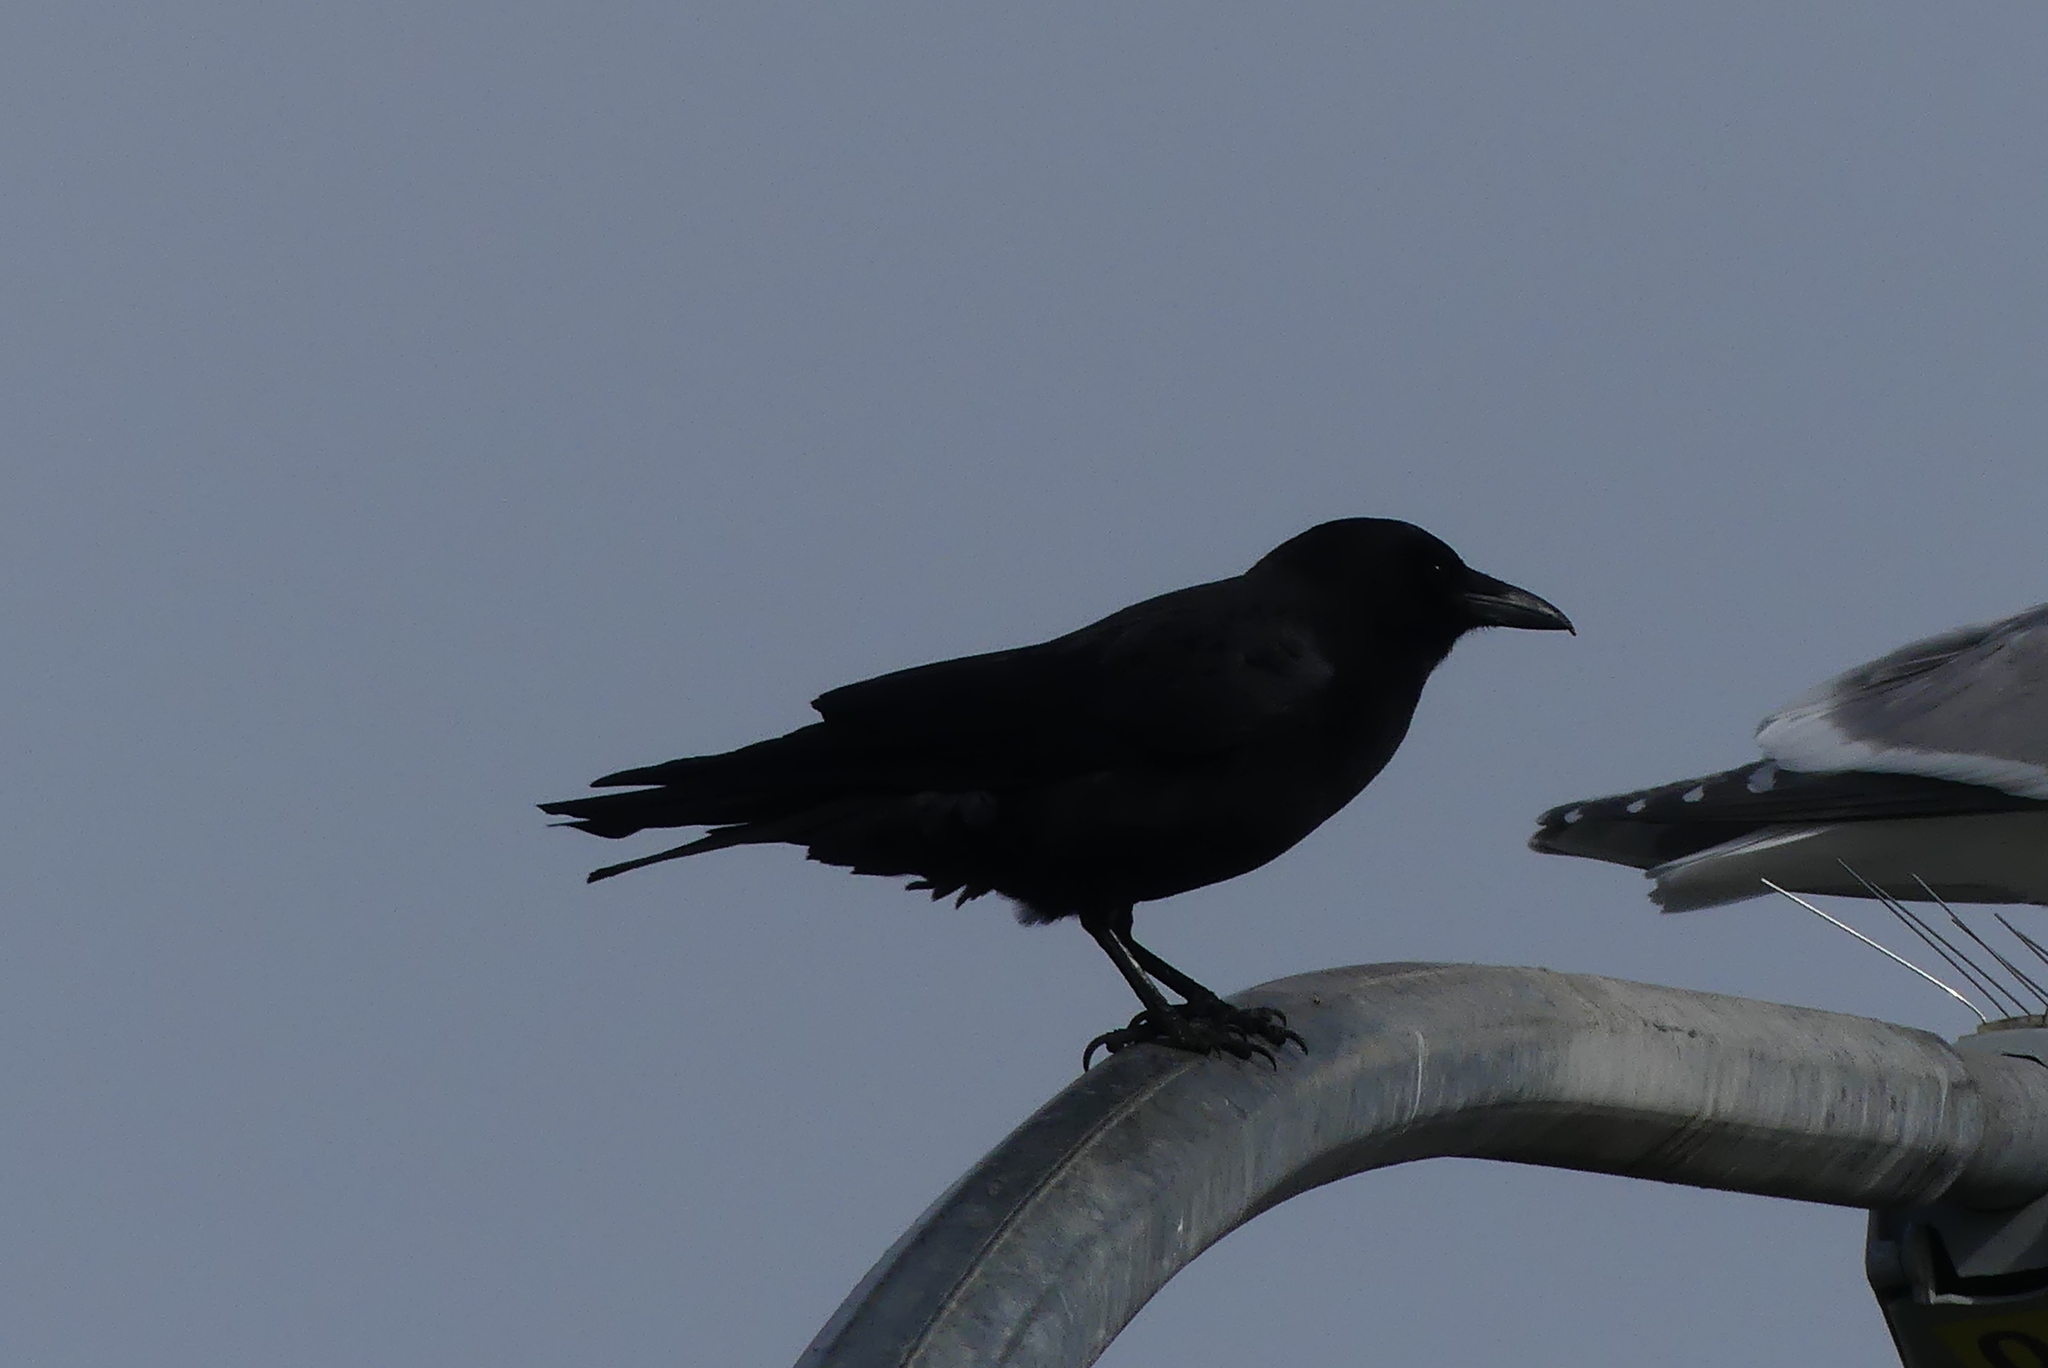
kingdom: Animalia
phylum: Chordata
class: Aves
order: Passeriformes
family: Corvidae
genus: Corvus
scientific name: Corvus brachyrhynchos
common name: American crow
